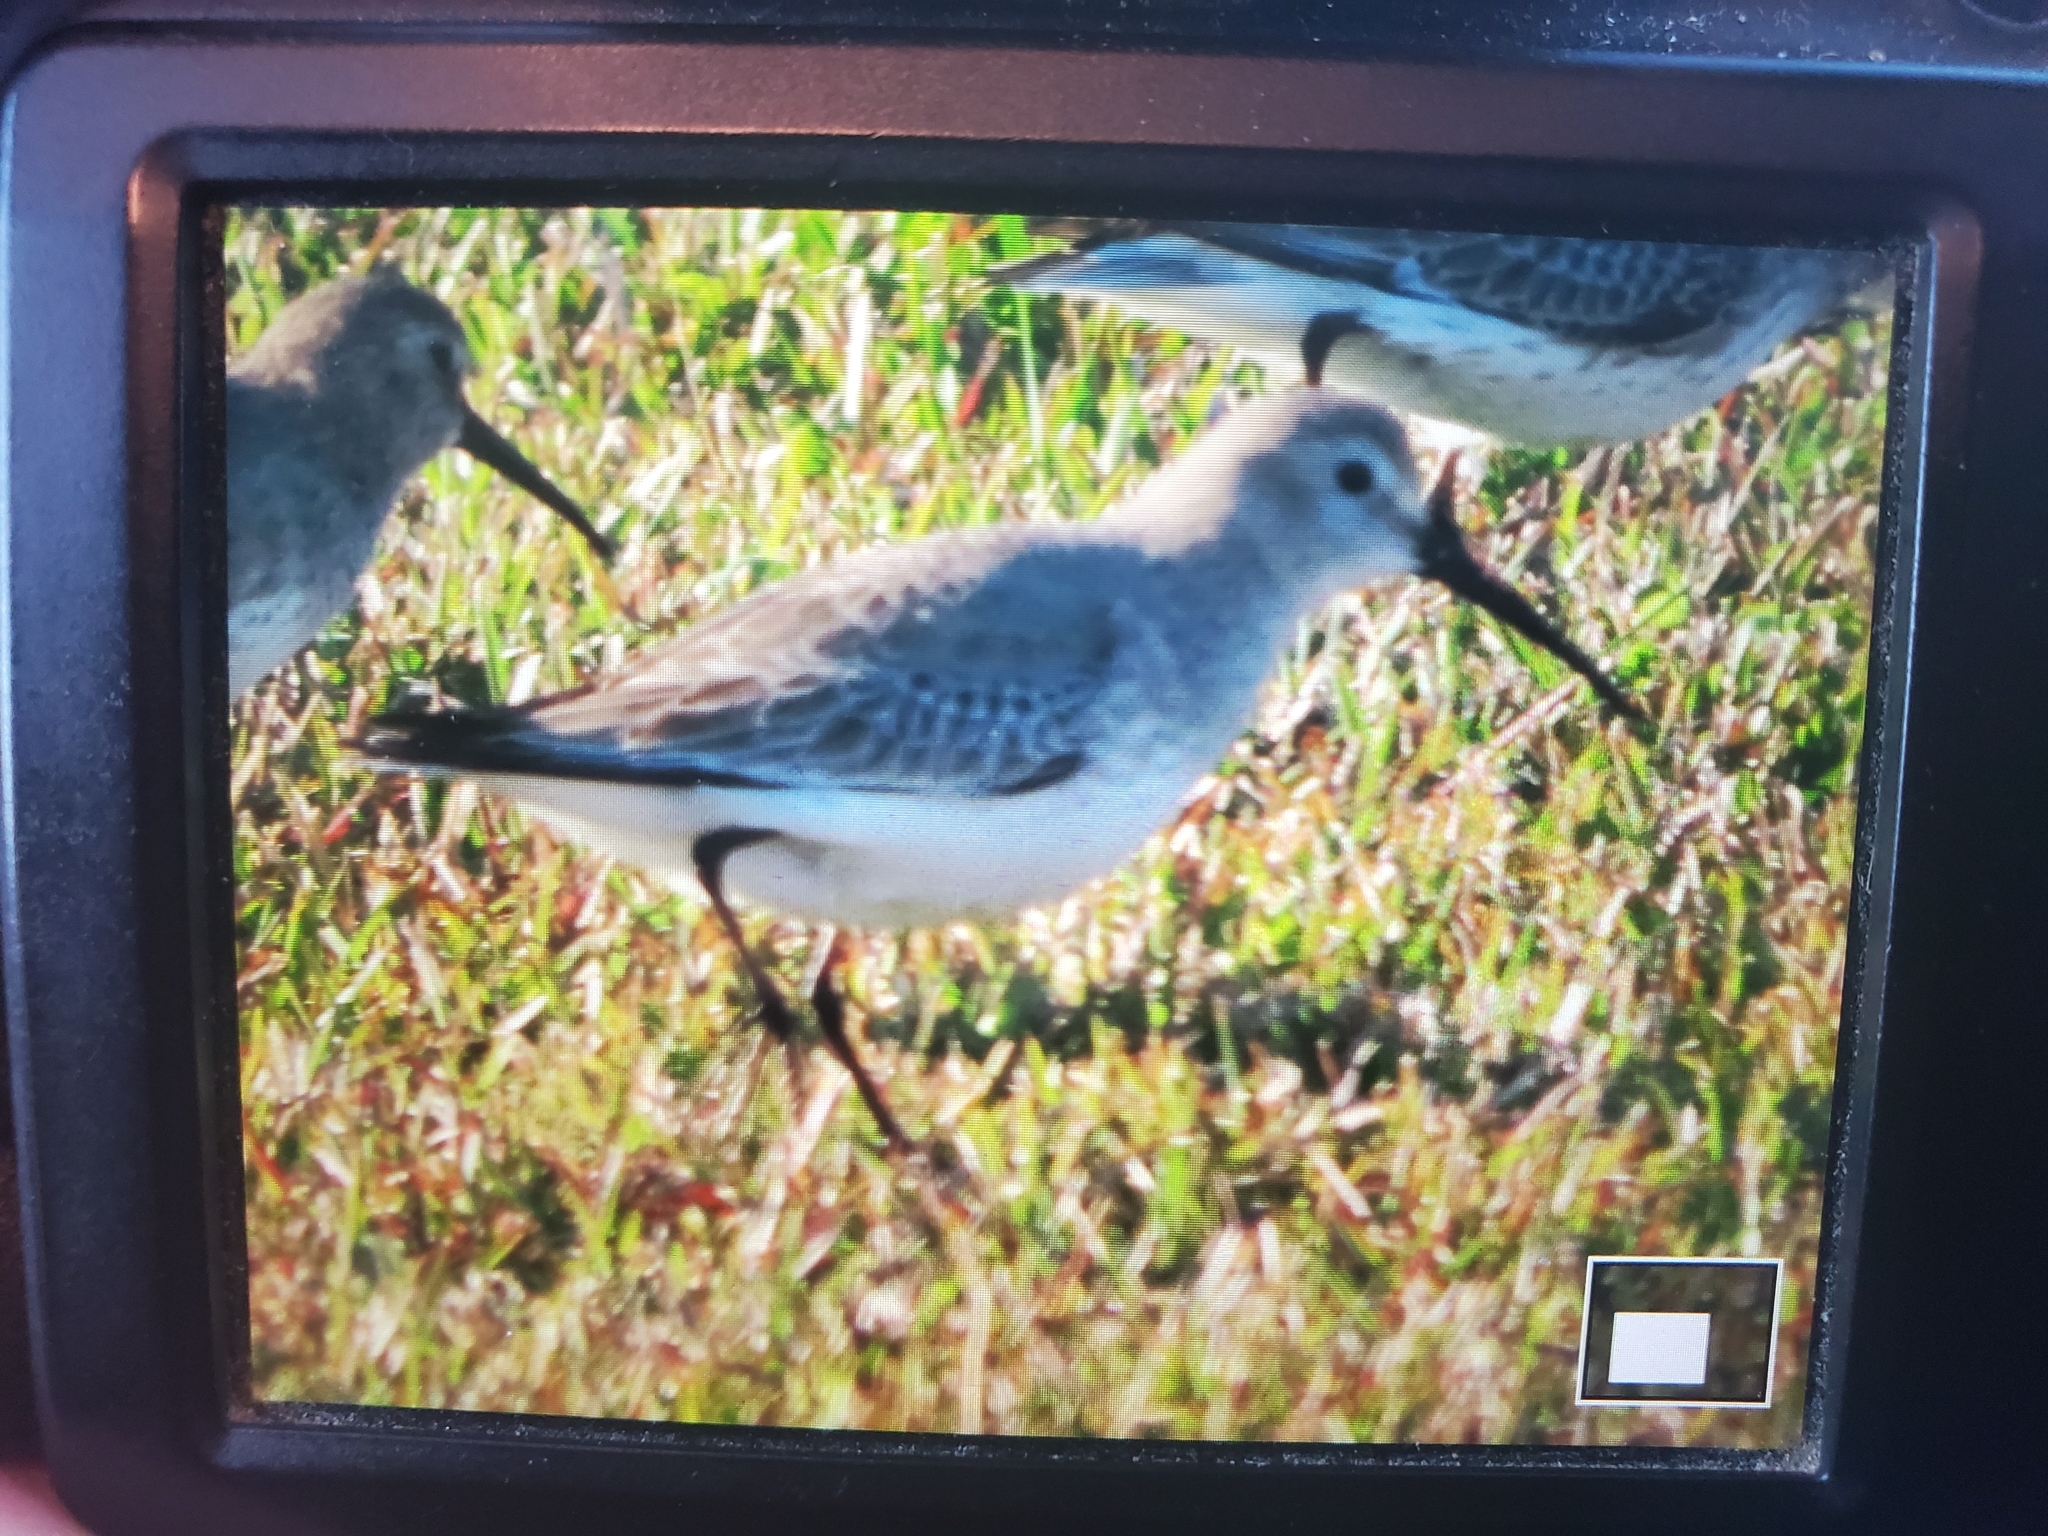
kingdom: Animalia
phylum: Chordata
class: Aves
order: Charadriiformes
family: Scolopacidae
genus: Calidris
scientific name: Calidris alpina
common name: Dunlin
